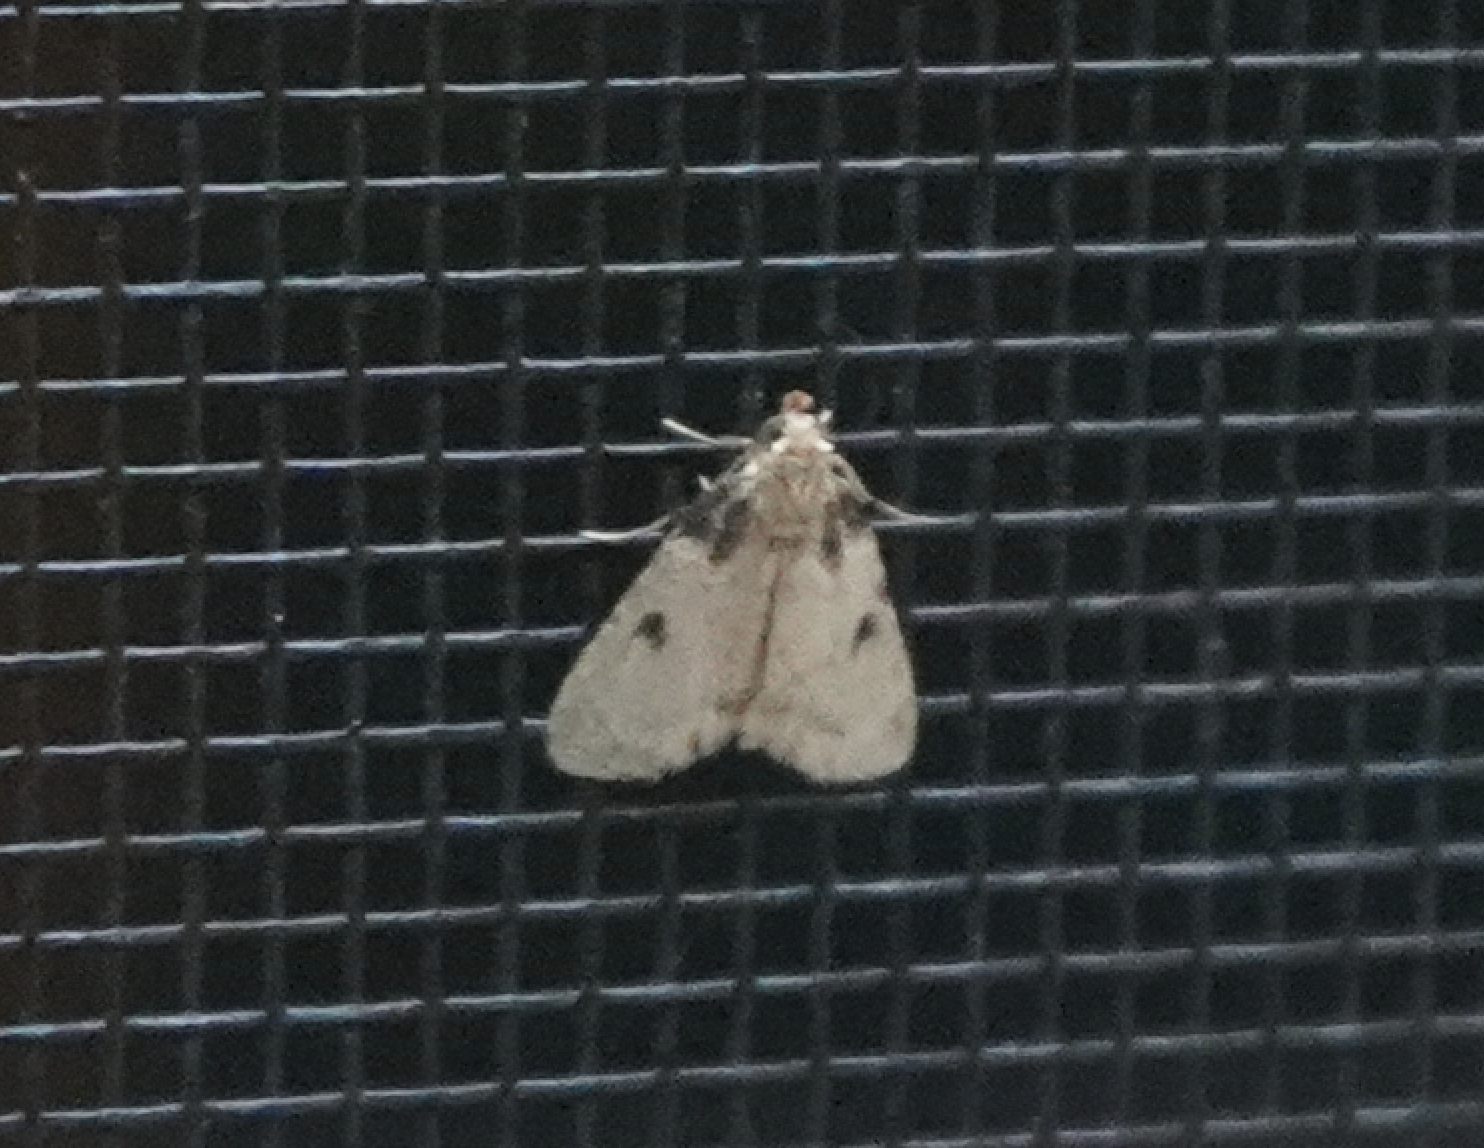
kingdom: Animalia
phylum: Arthropoda
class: Insecta
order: Lepidoptera
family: Pyralidae
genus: Aglossa
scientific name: Aglossa costiferalis
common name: Calico pyralid moth
